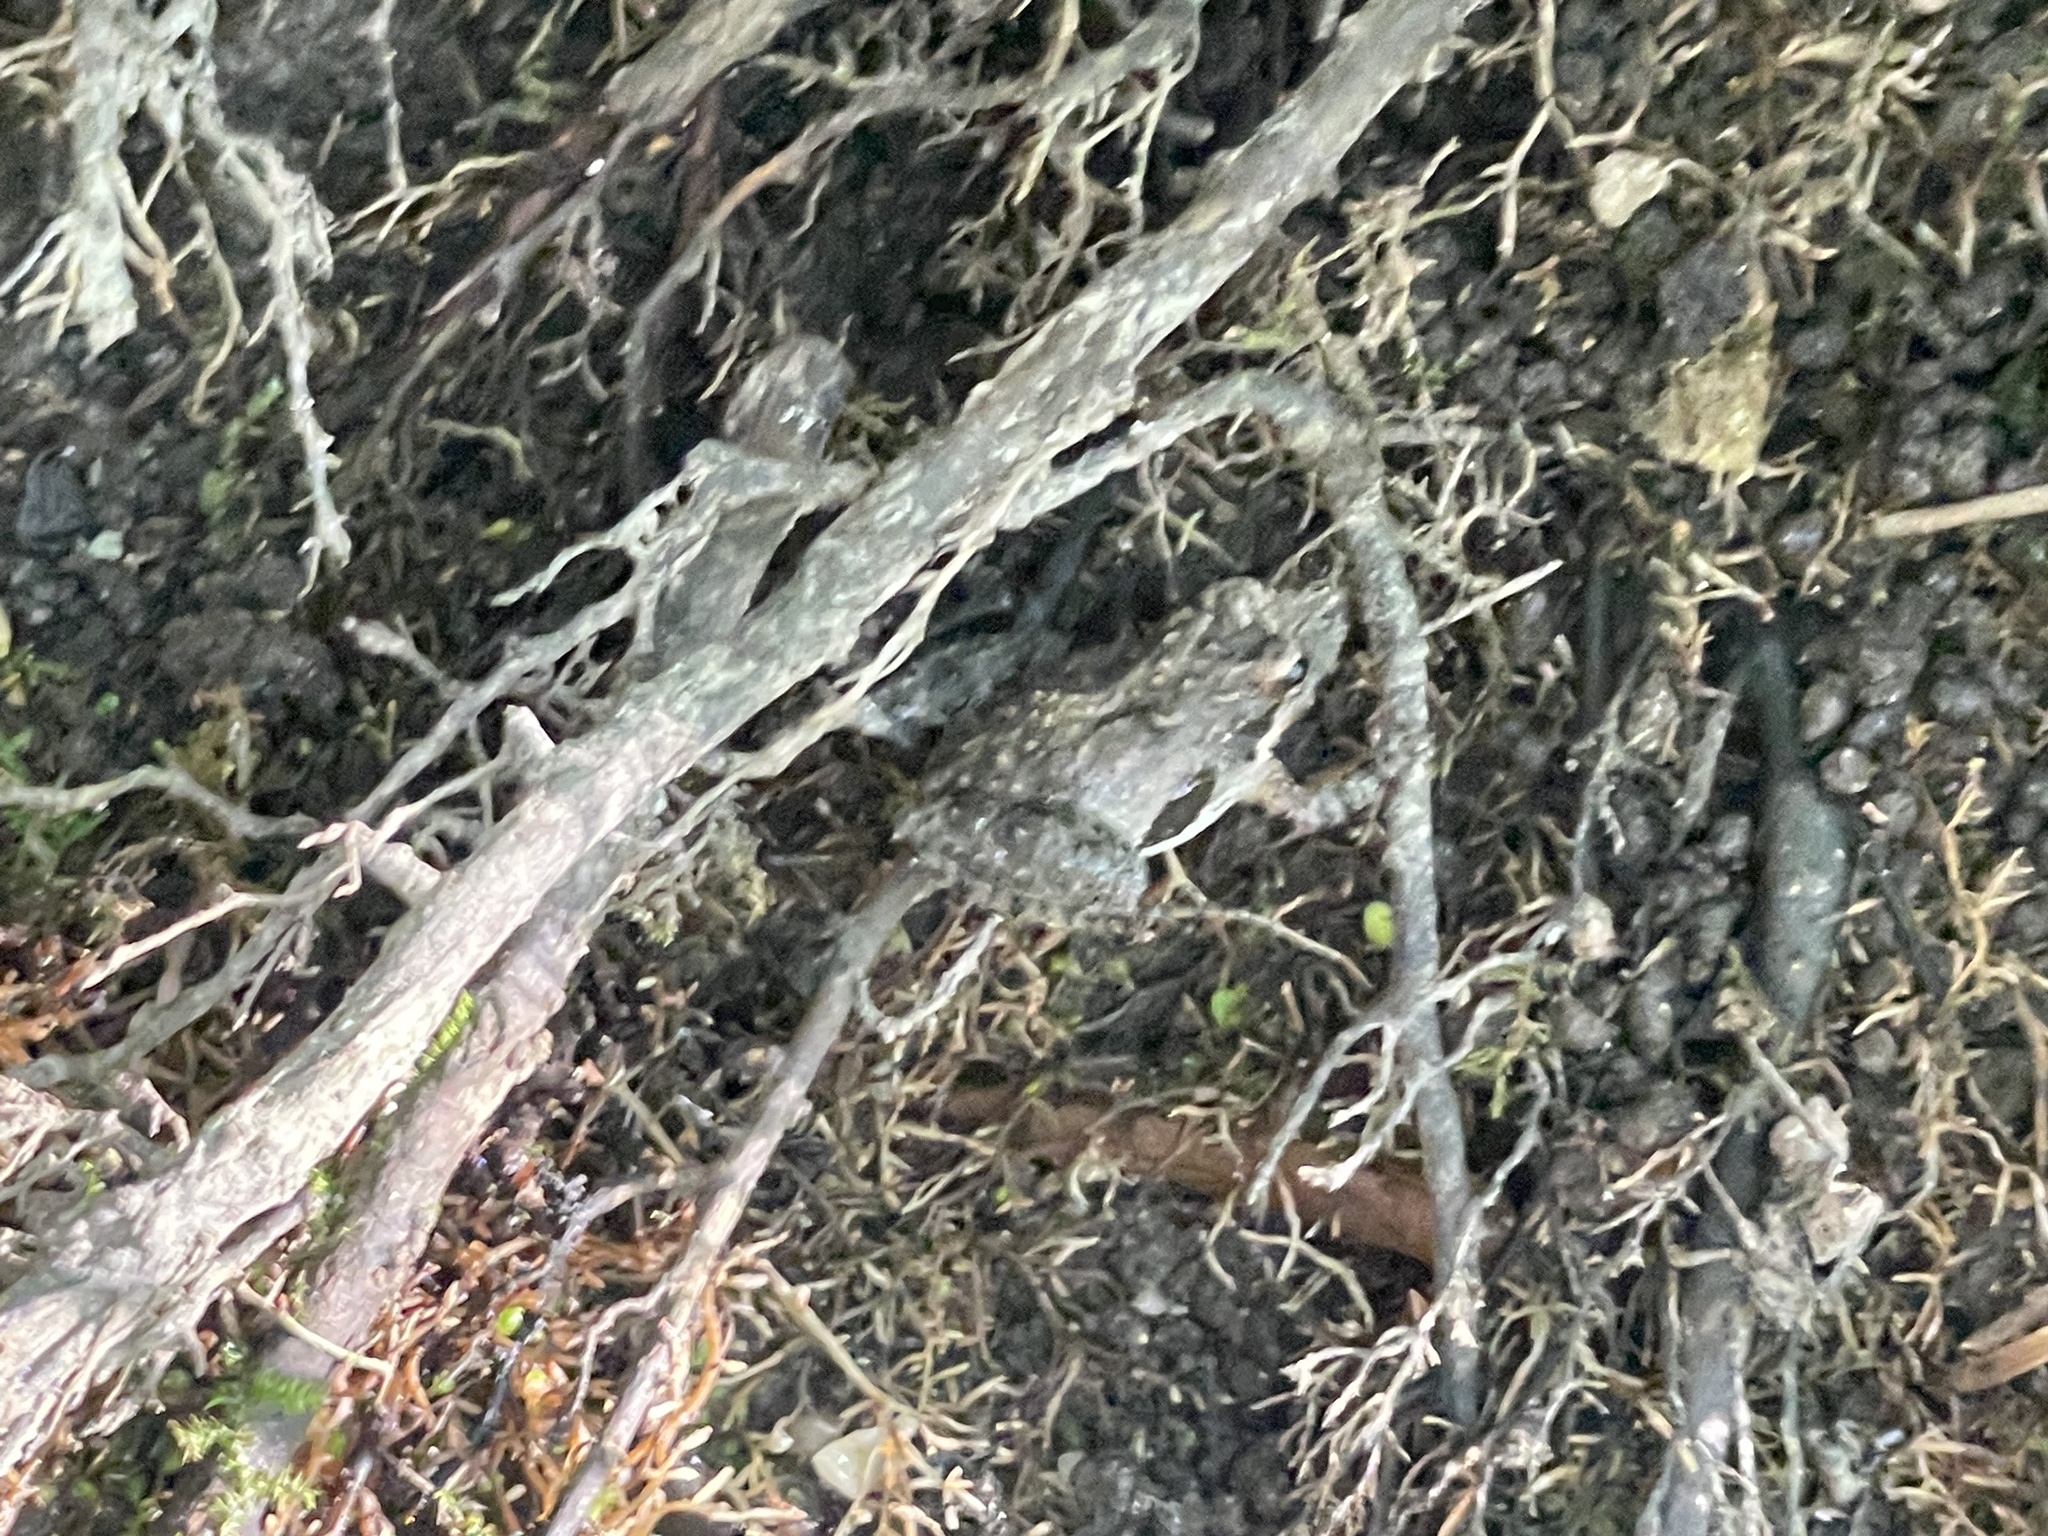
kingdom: Animalia
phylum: Chordata
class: Amphibia
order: Anura
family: Hylidae
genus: Acris
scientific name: Acris crepitans
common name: Northern cricket frog
